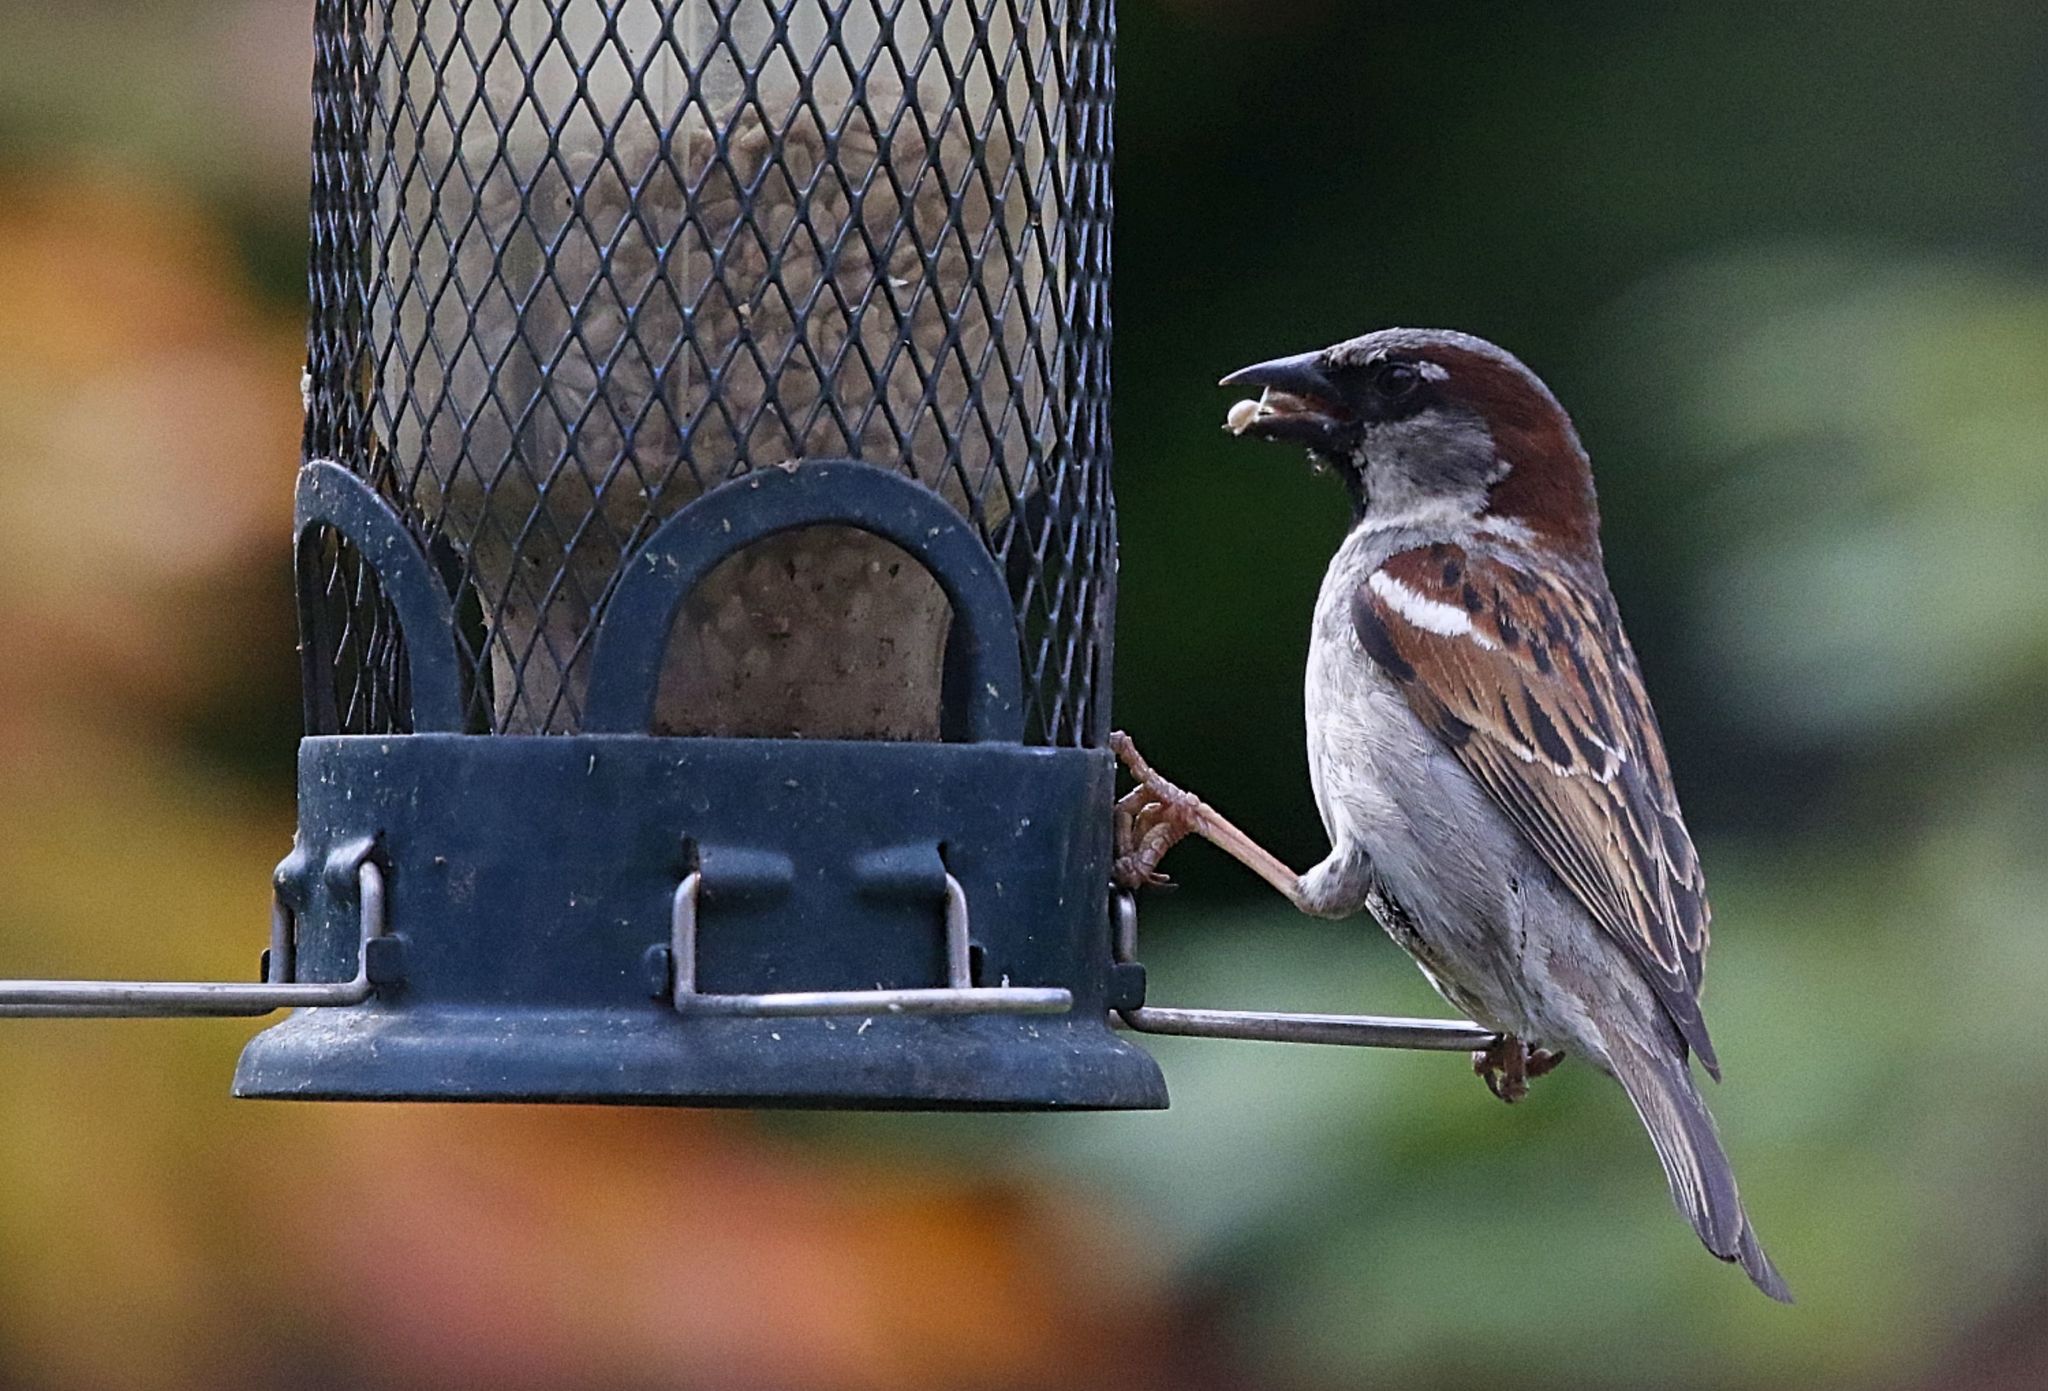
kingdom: Animalia
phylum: Chordata
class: Aves
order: Passeriformes
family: Passeridae
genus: Passer
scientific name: Passer domesticus
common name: House sparrow
